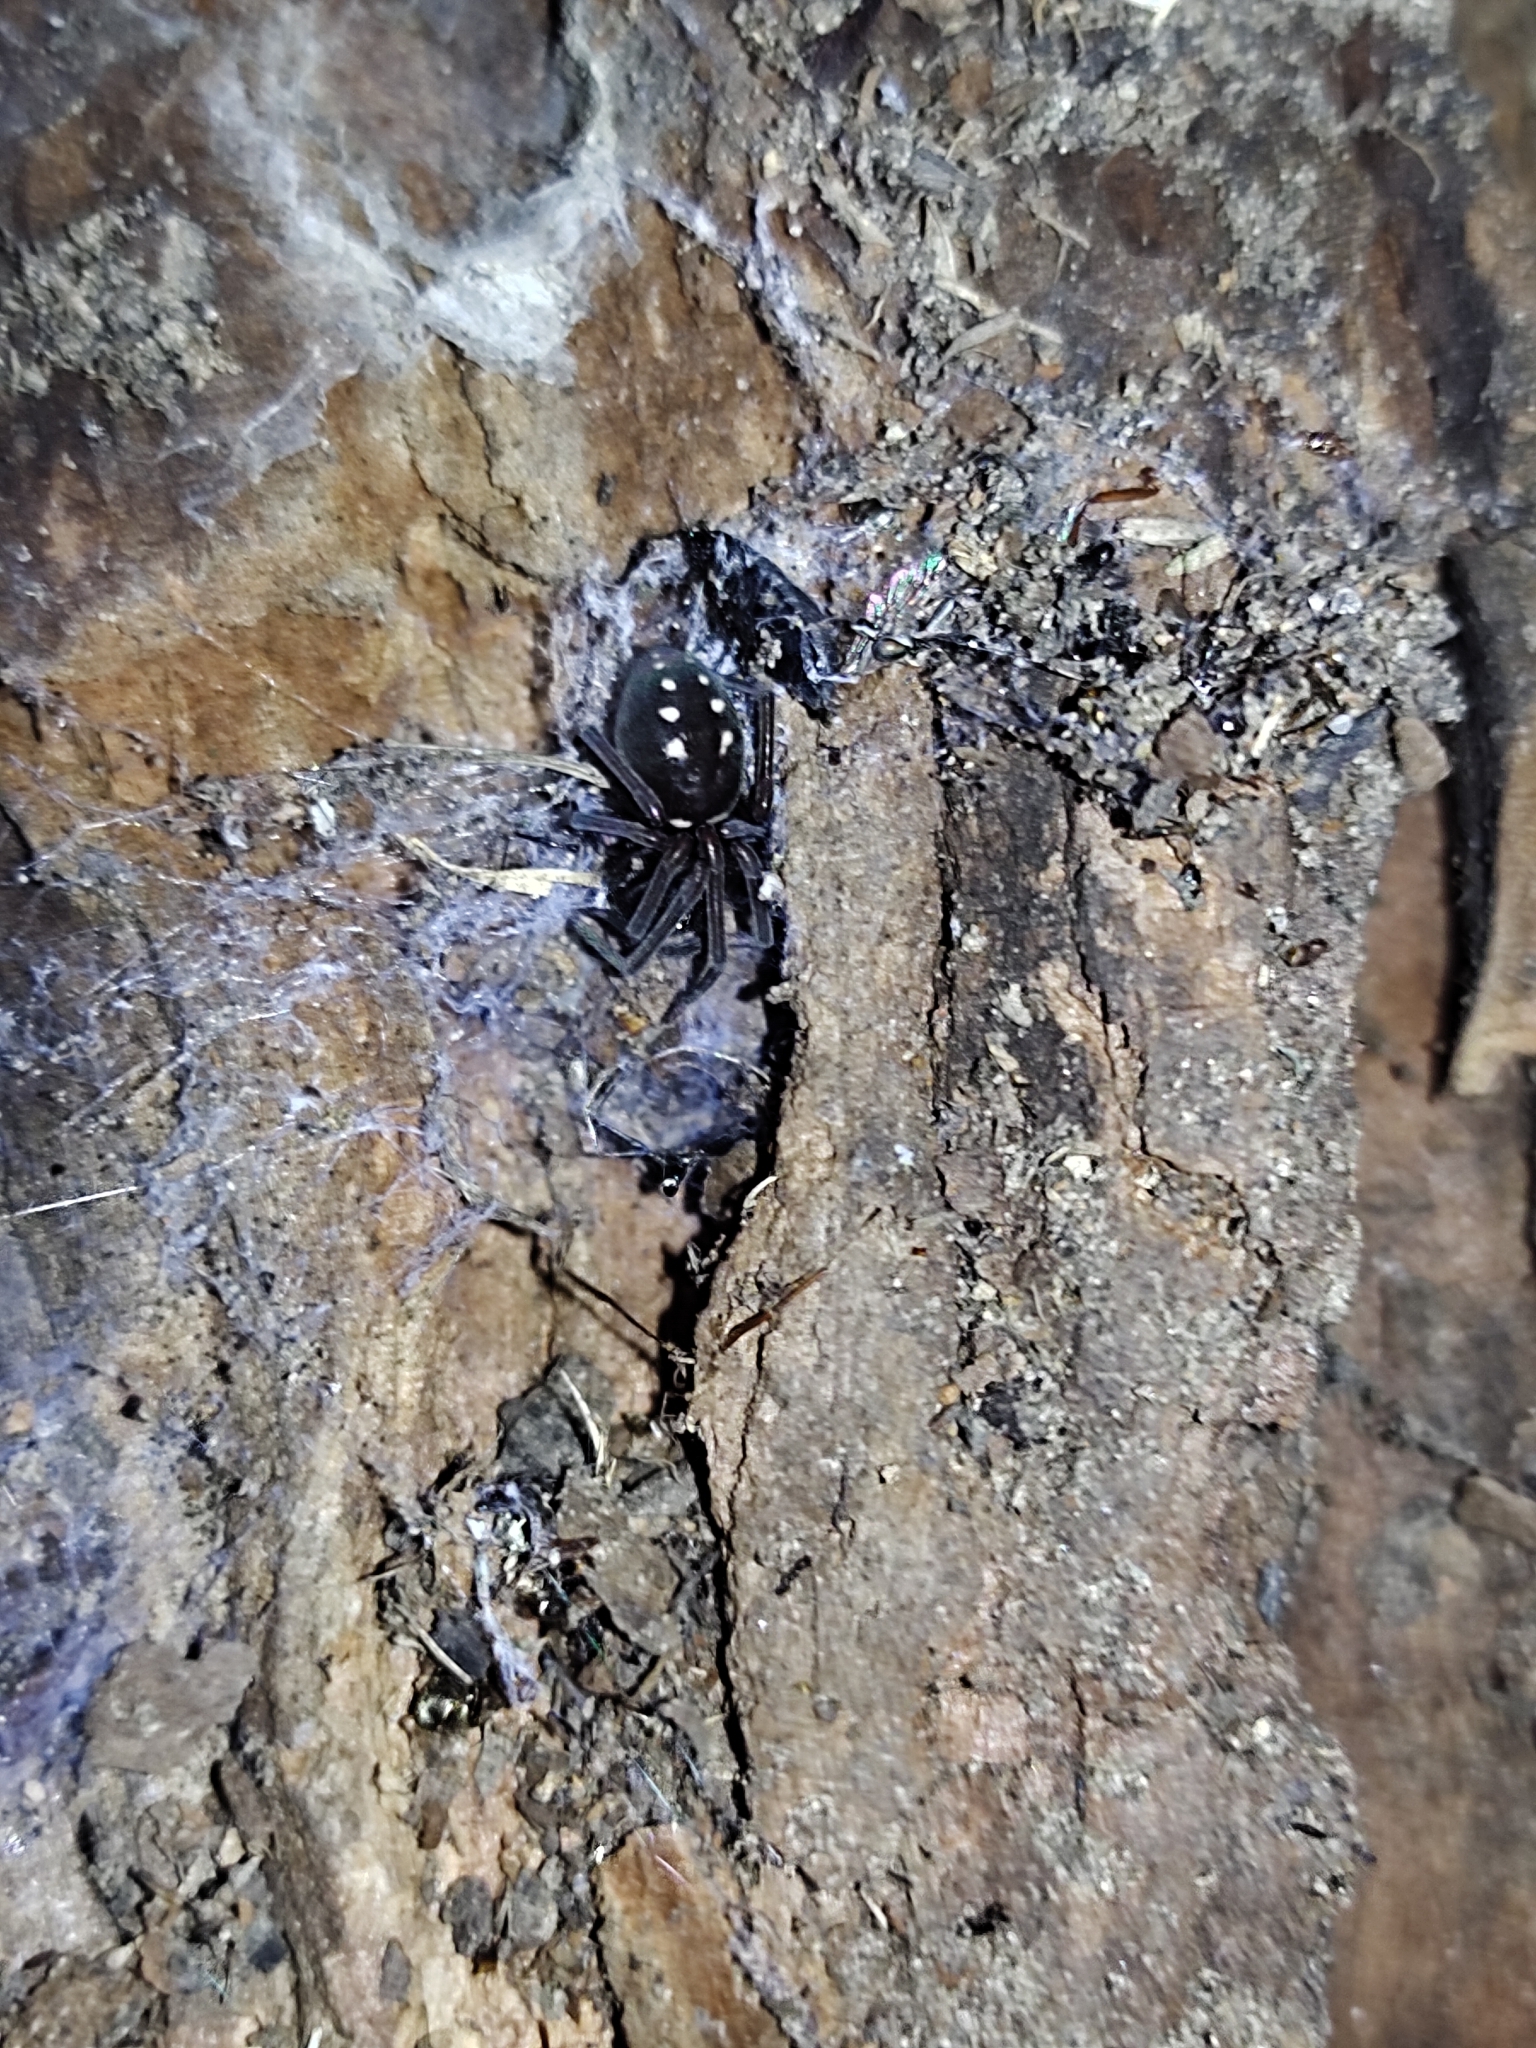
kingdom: Animalia
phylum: Arthropoda
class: Arachnida
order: Araneae
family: Titanoecidae
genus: Nurscia
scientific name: Nurscia albomaculata
